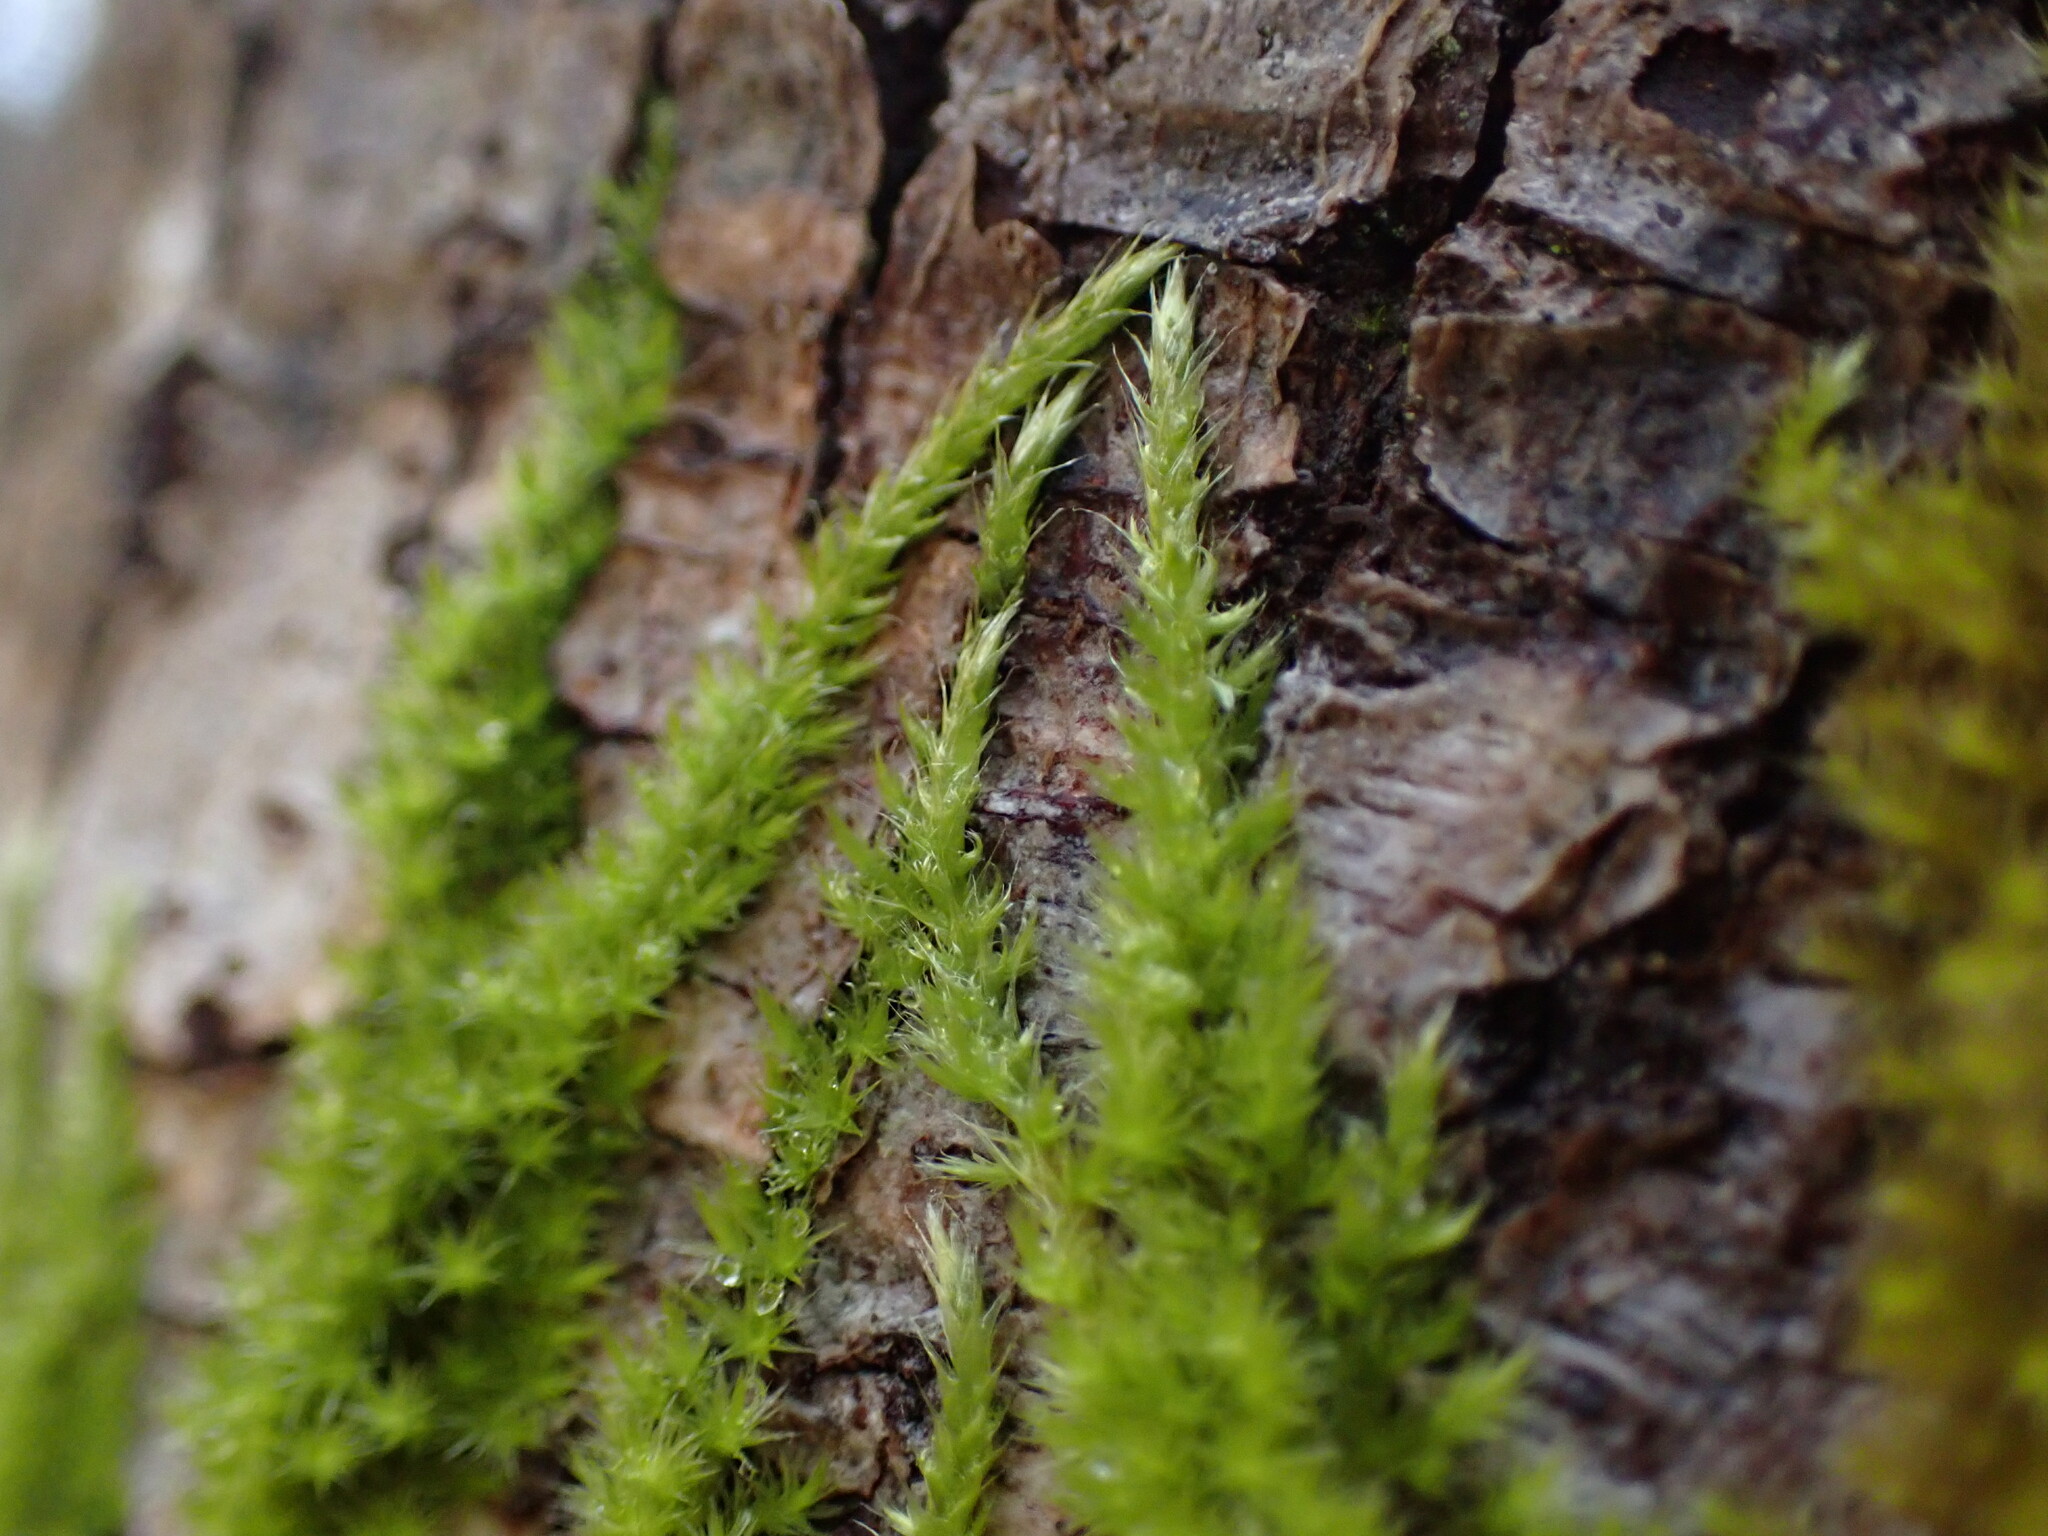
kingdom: Plantae
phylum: Bryophyta
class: Bryopsida
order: Hypnales
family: Brachytheciaceae
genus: Homalothecium
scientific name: Homalothecium nuttallii
